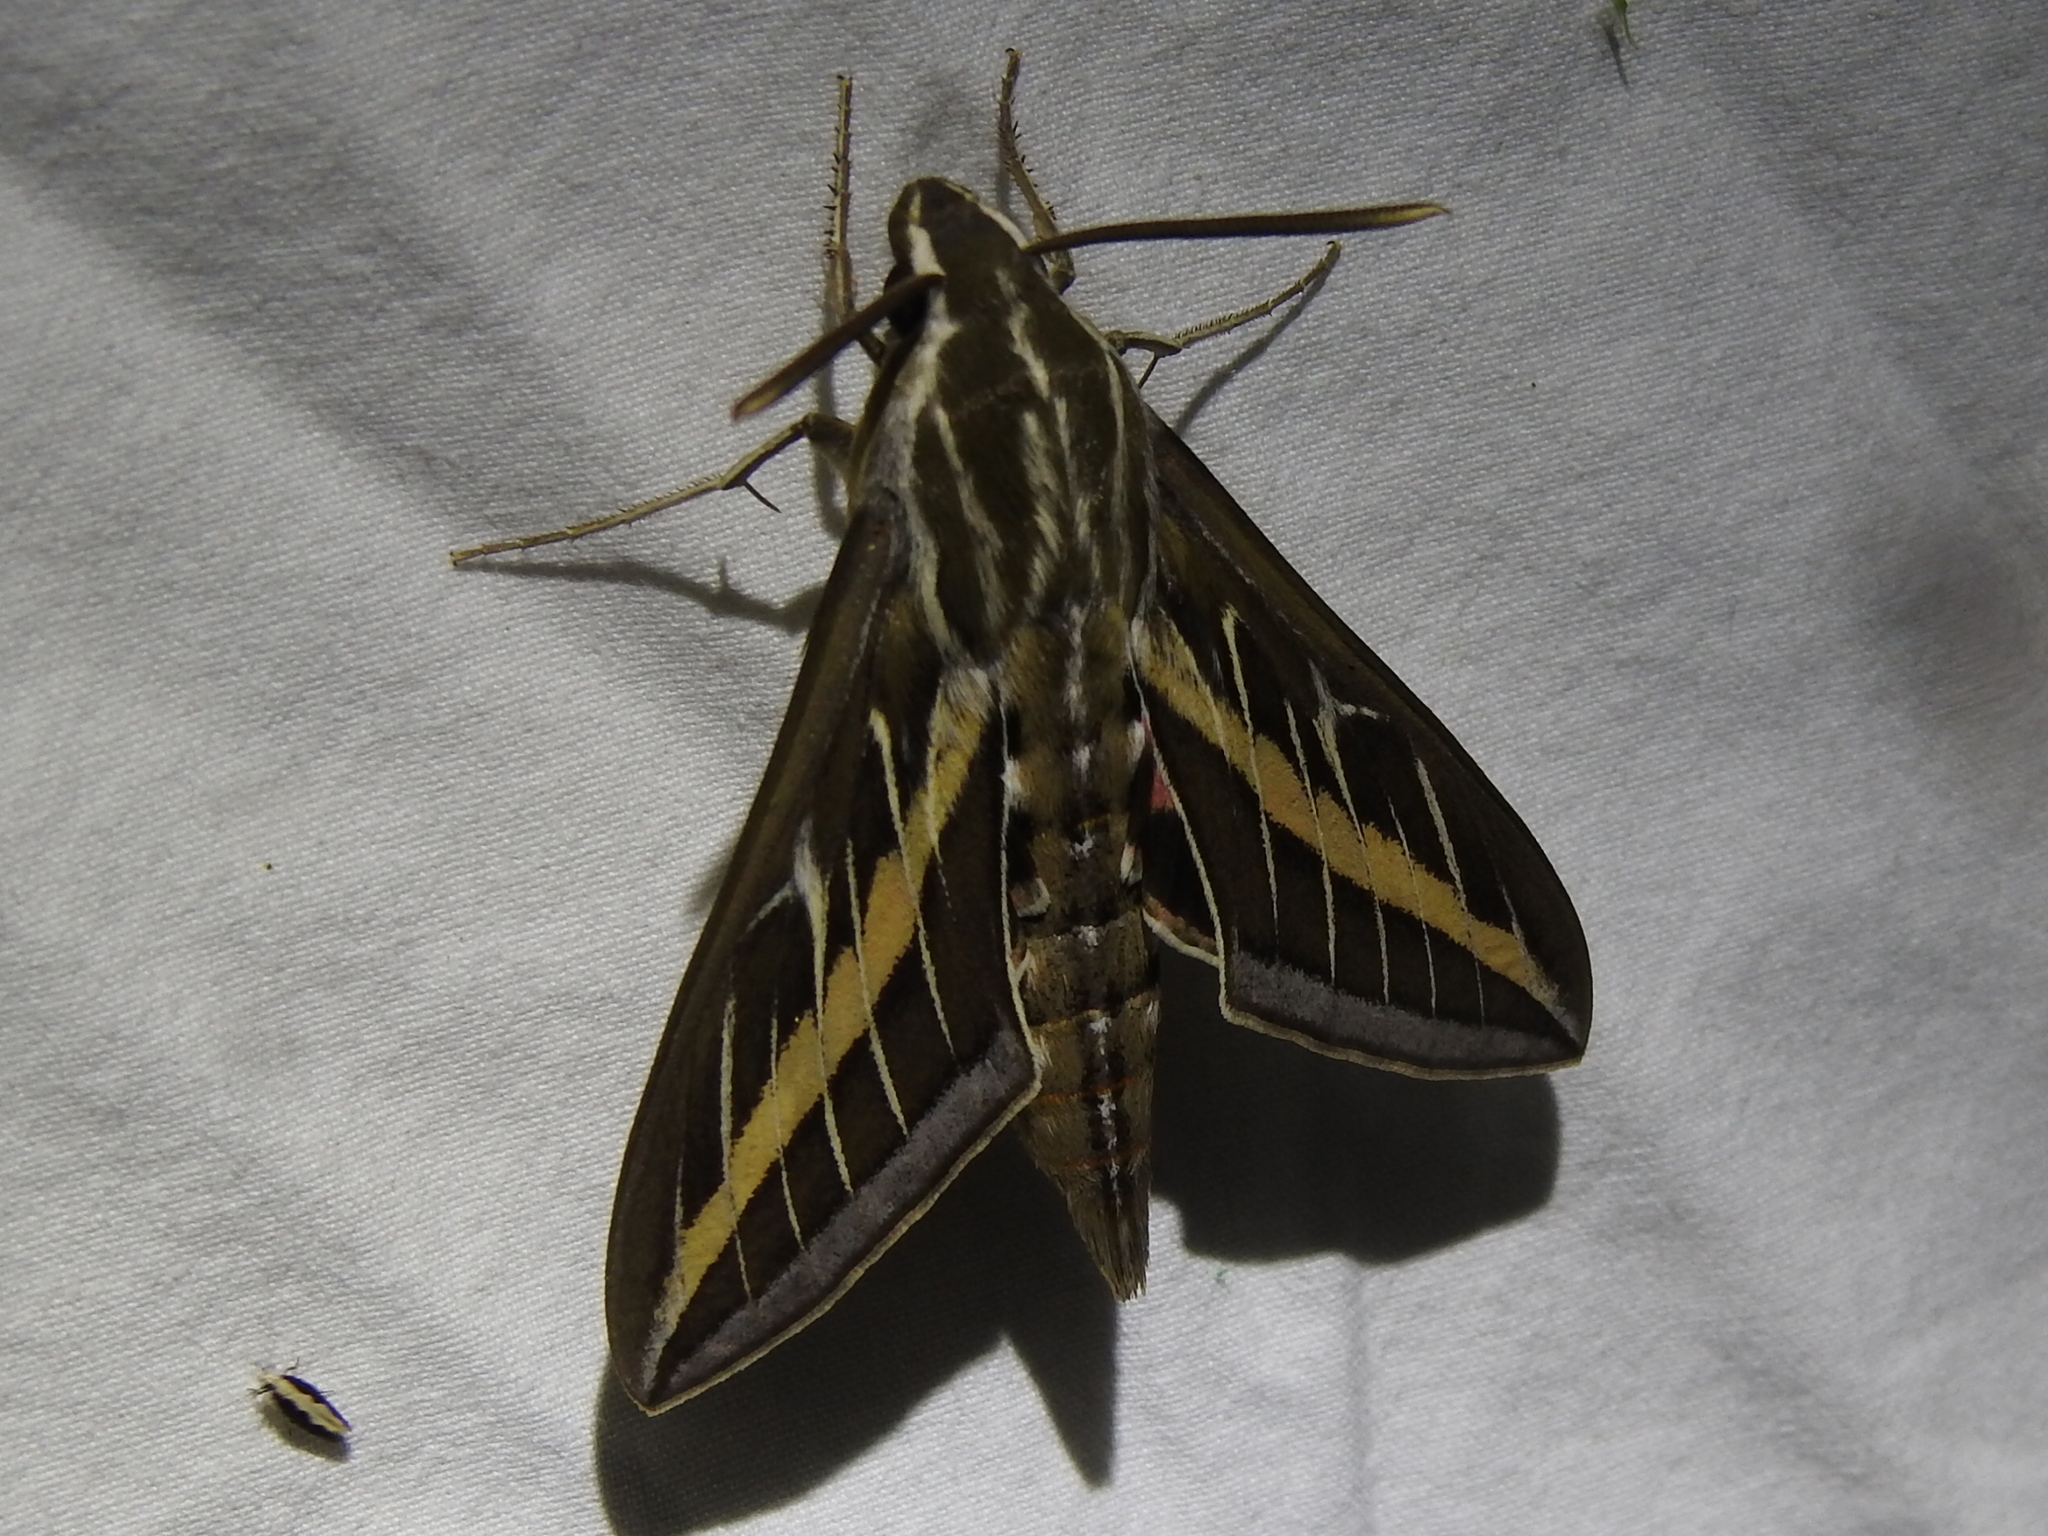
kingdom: Animalia
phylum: Arthropoda
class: Insecta
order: Lepidoptera
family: Sphingidae
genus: Hyles
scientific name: Hyles lineata
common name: White-lined sphinx
